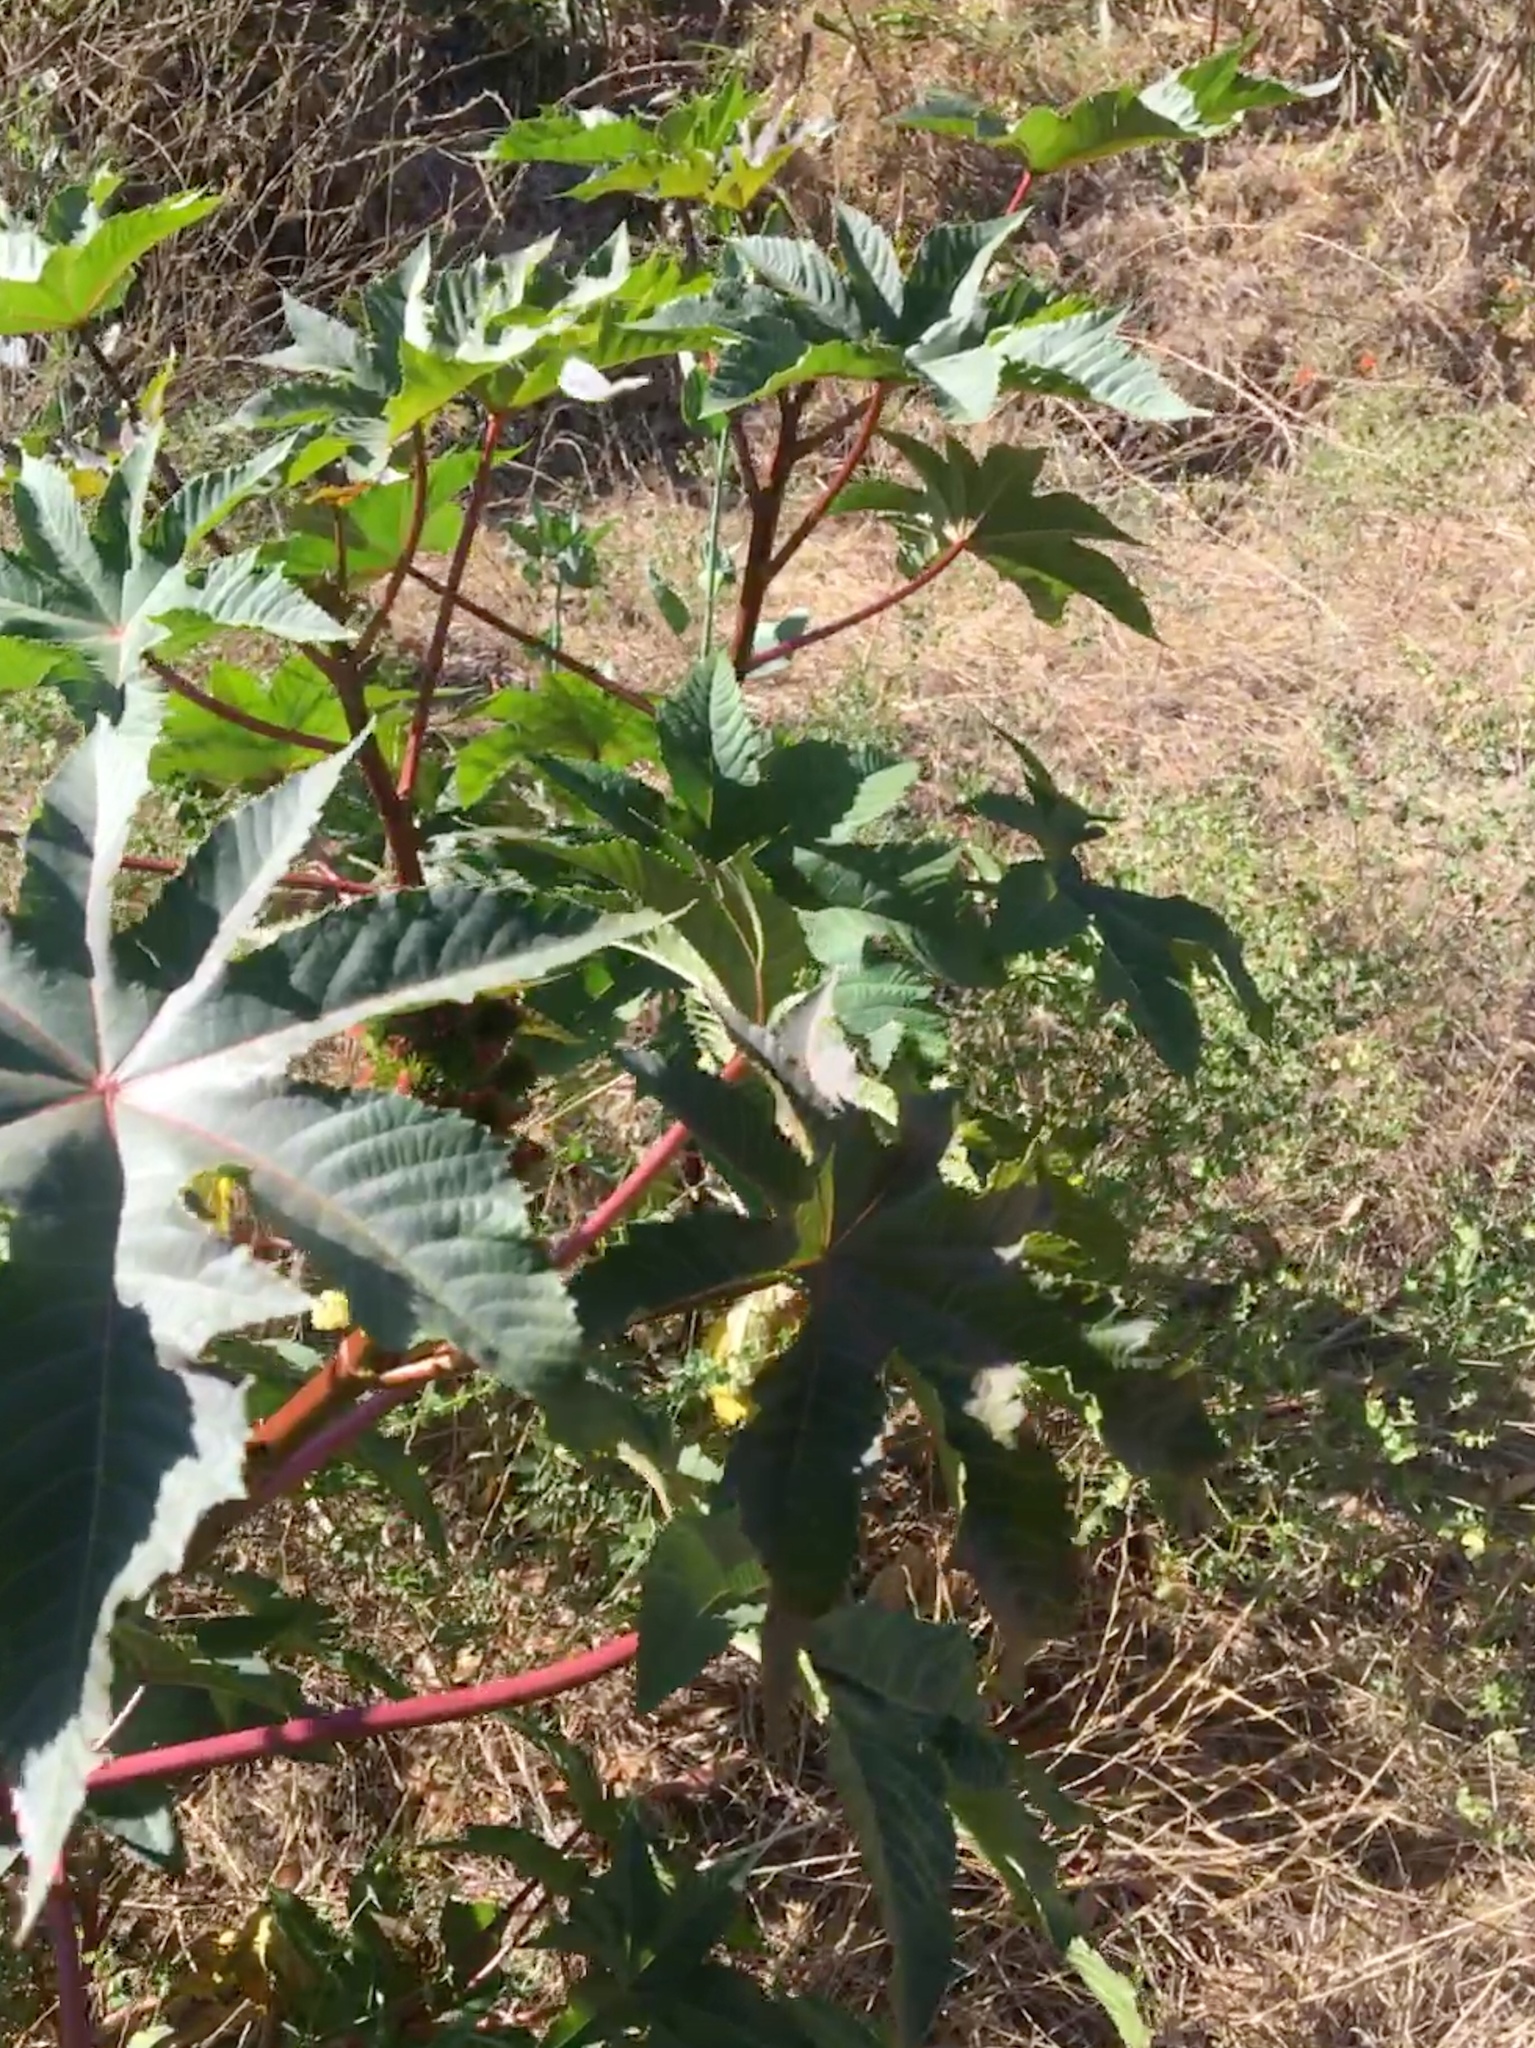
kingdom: Plantae
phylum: Tracheophyta
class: Magnoliopsida
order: Malpighiales
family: Euphorbiaceae
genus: Ricinus
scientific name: Ricinus communis
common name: Castor-oil-plant
